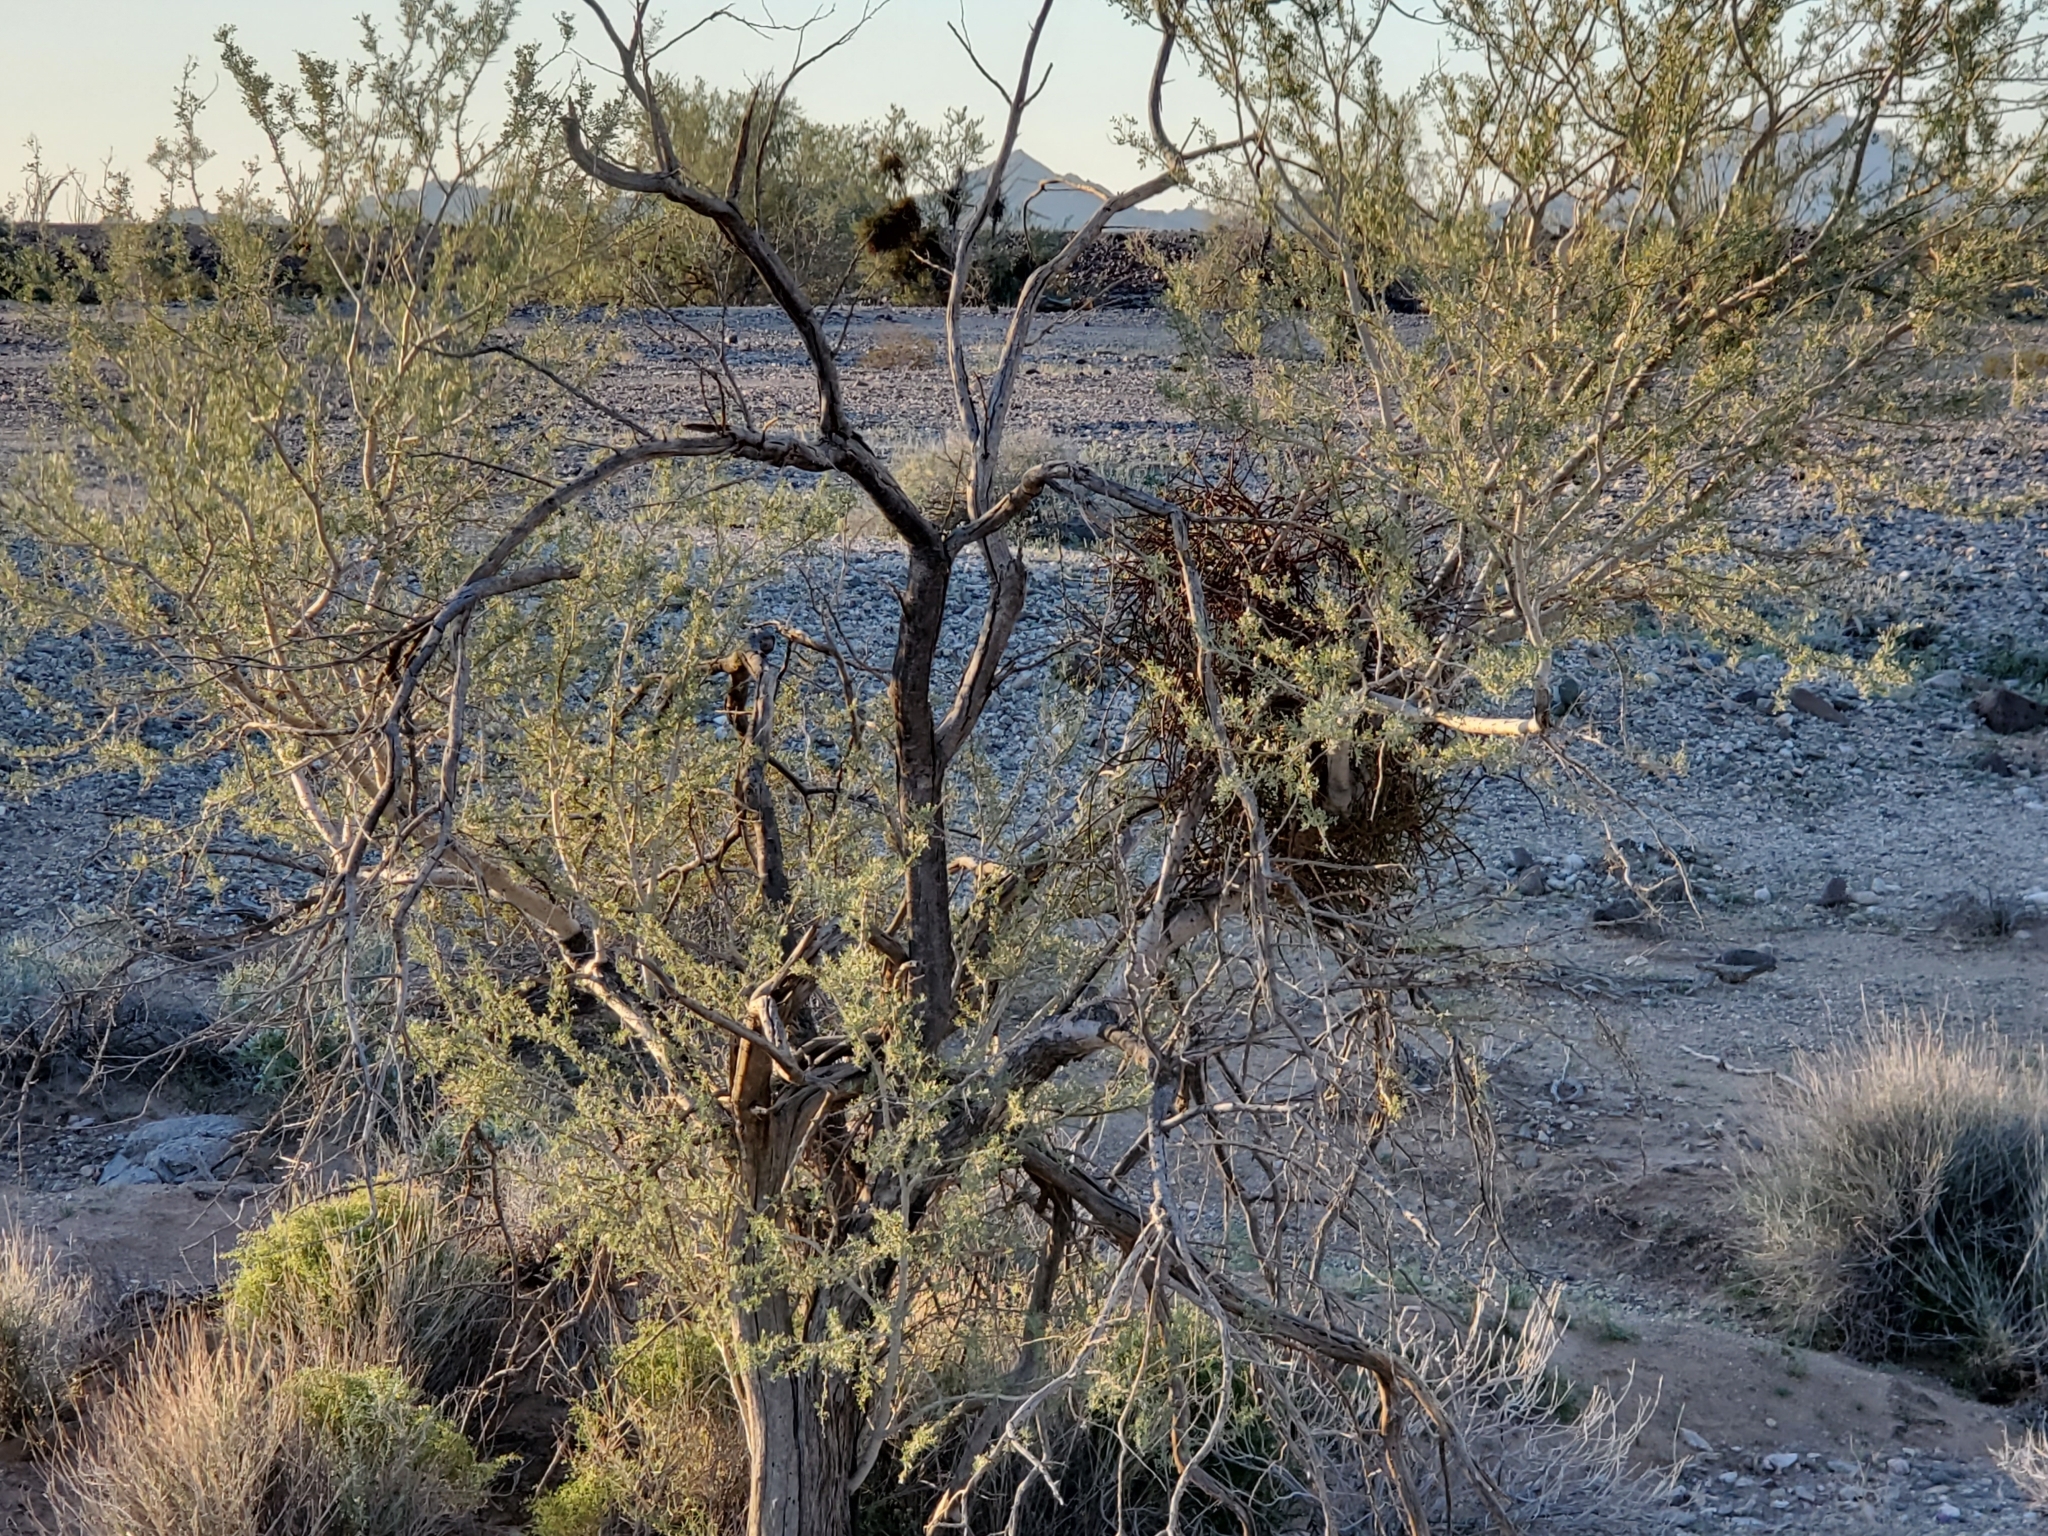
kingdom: Plantae
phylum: Tracheophyta
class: Magnoliopsida
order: Santalales
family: Viscaceae
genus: Phoradendron
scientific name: Phoradendron californicum
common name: Acacia mistletoe
